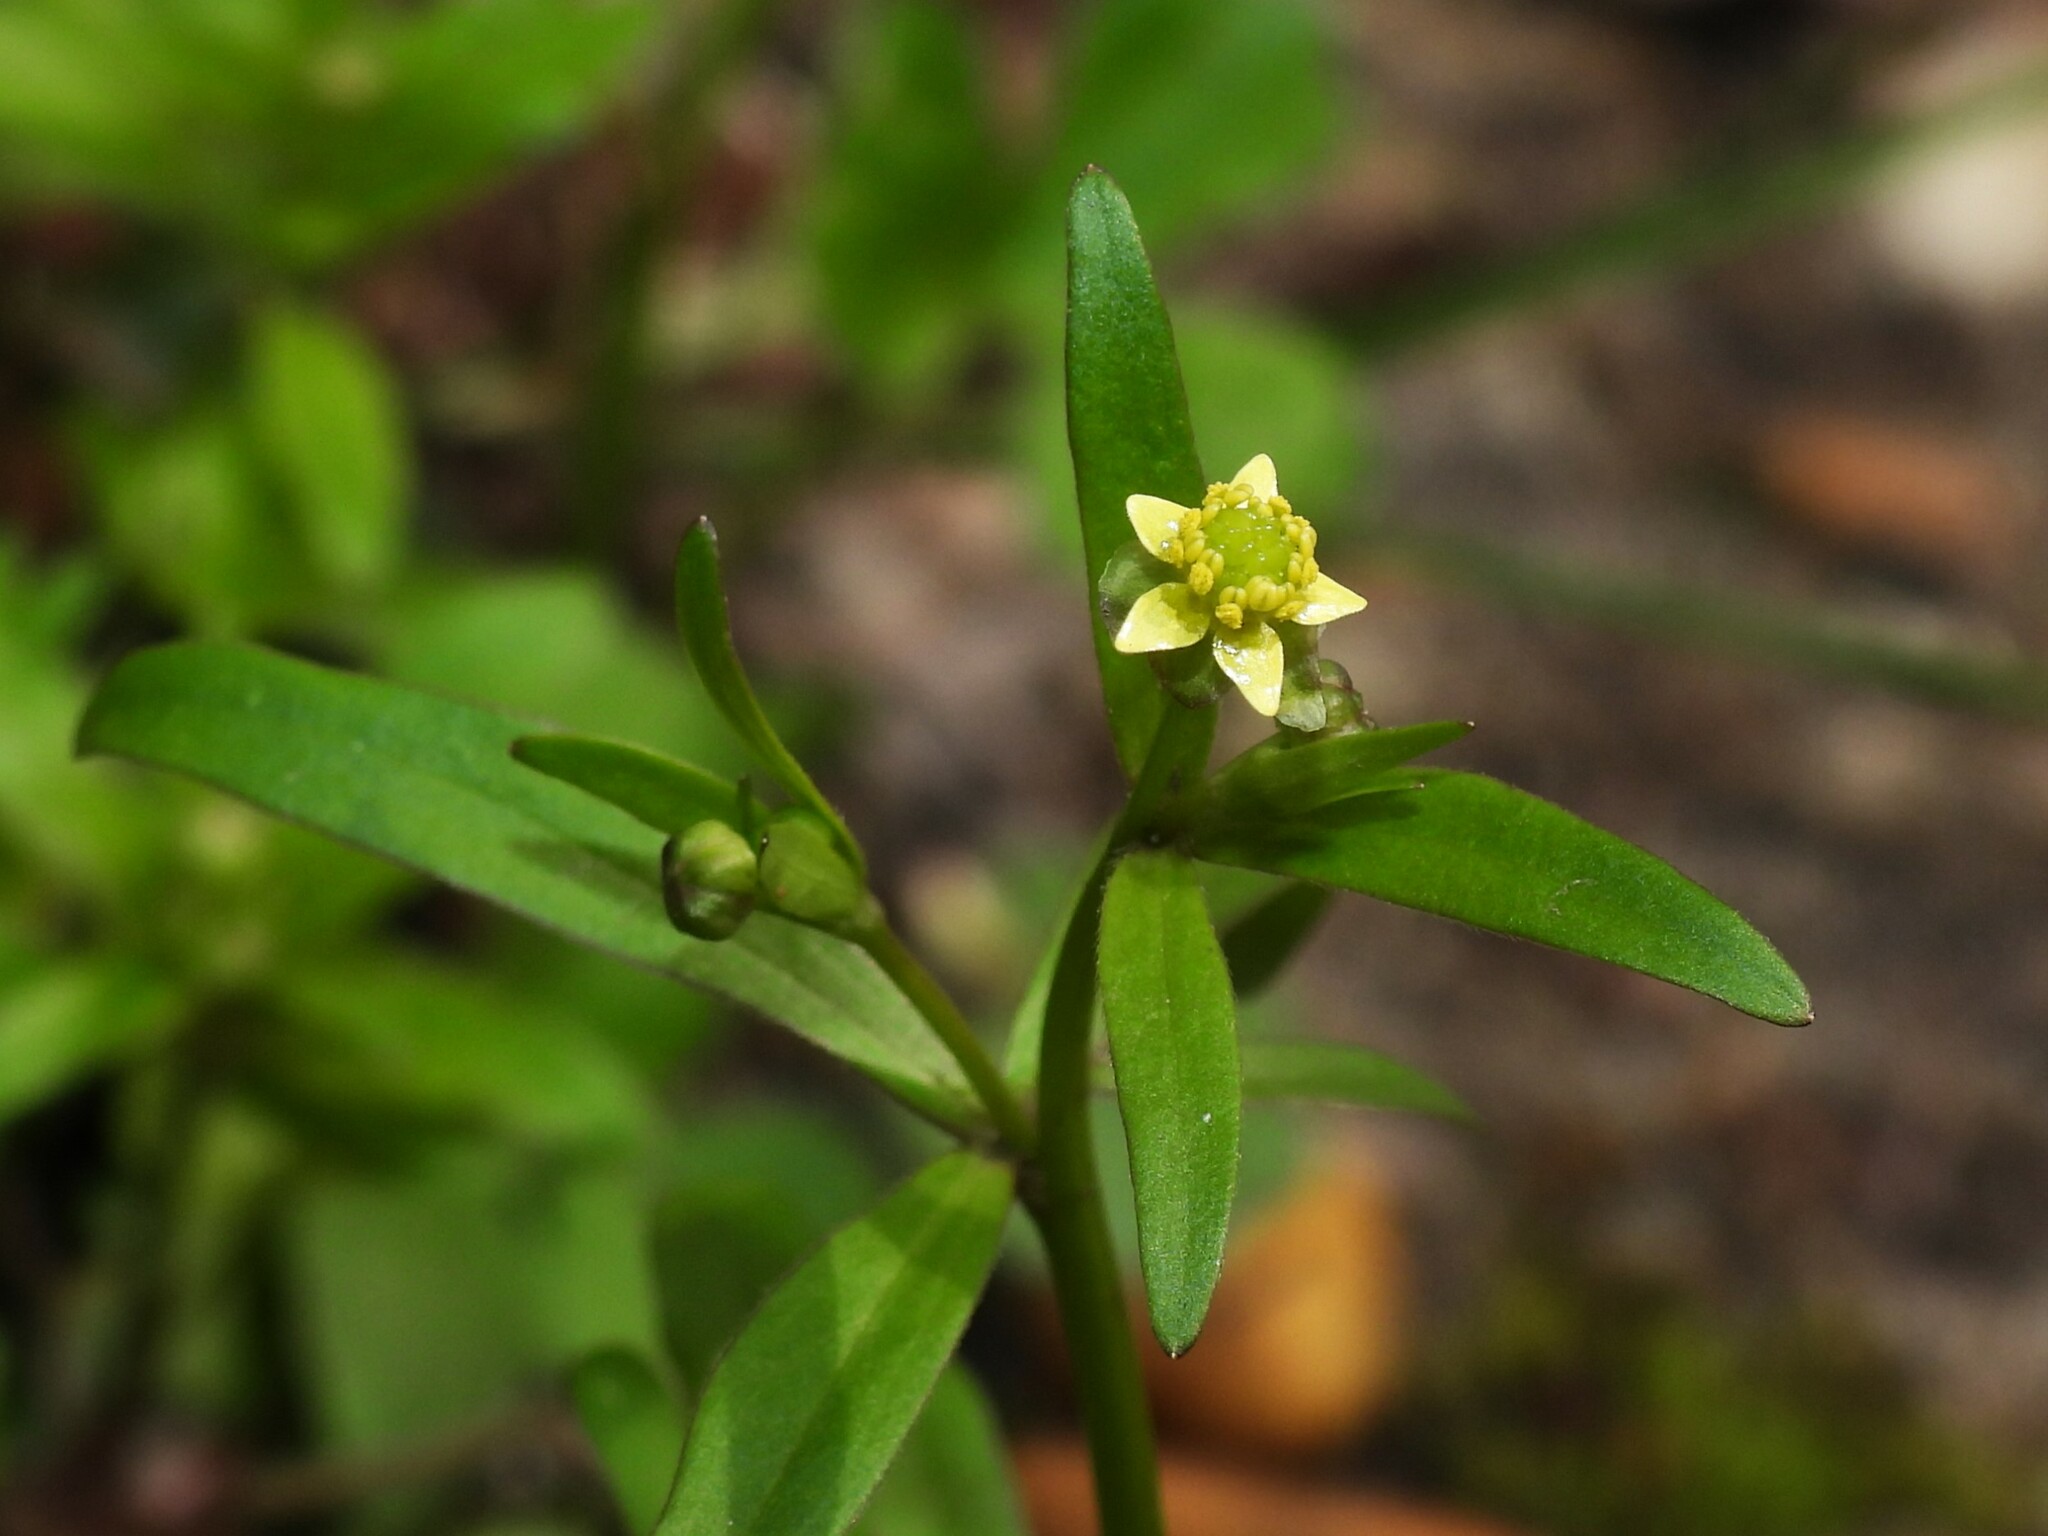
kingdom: Plantae
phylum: Tracheophyta
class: Magnoliopsida
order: Ranunculales
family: Ranunculaceae
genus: Ranunculus
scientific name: Ranunculus abortivus
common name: Early wood buttercup
